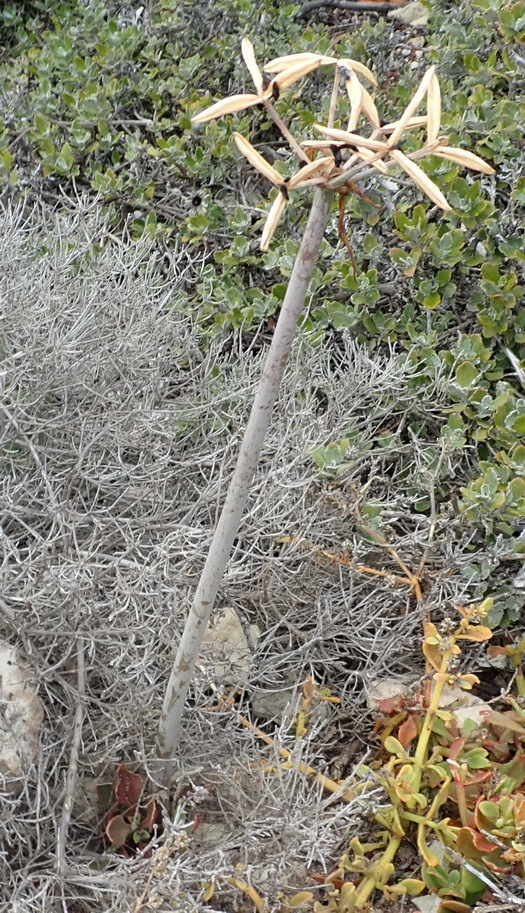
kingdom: Plantae
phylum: Tracheophyta
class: Liliopsida
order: Asparagales
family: Amaryllidaceae
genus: Cyrtanthus
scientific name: Cyrtanthus angustifolius
